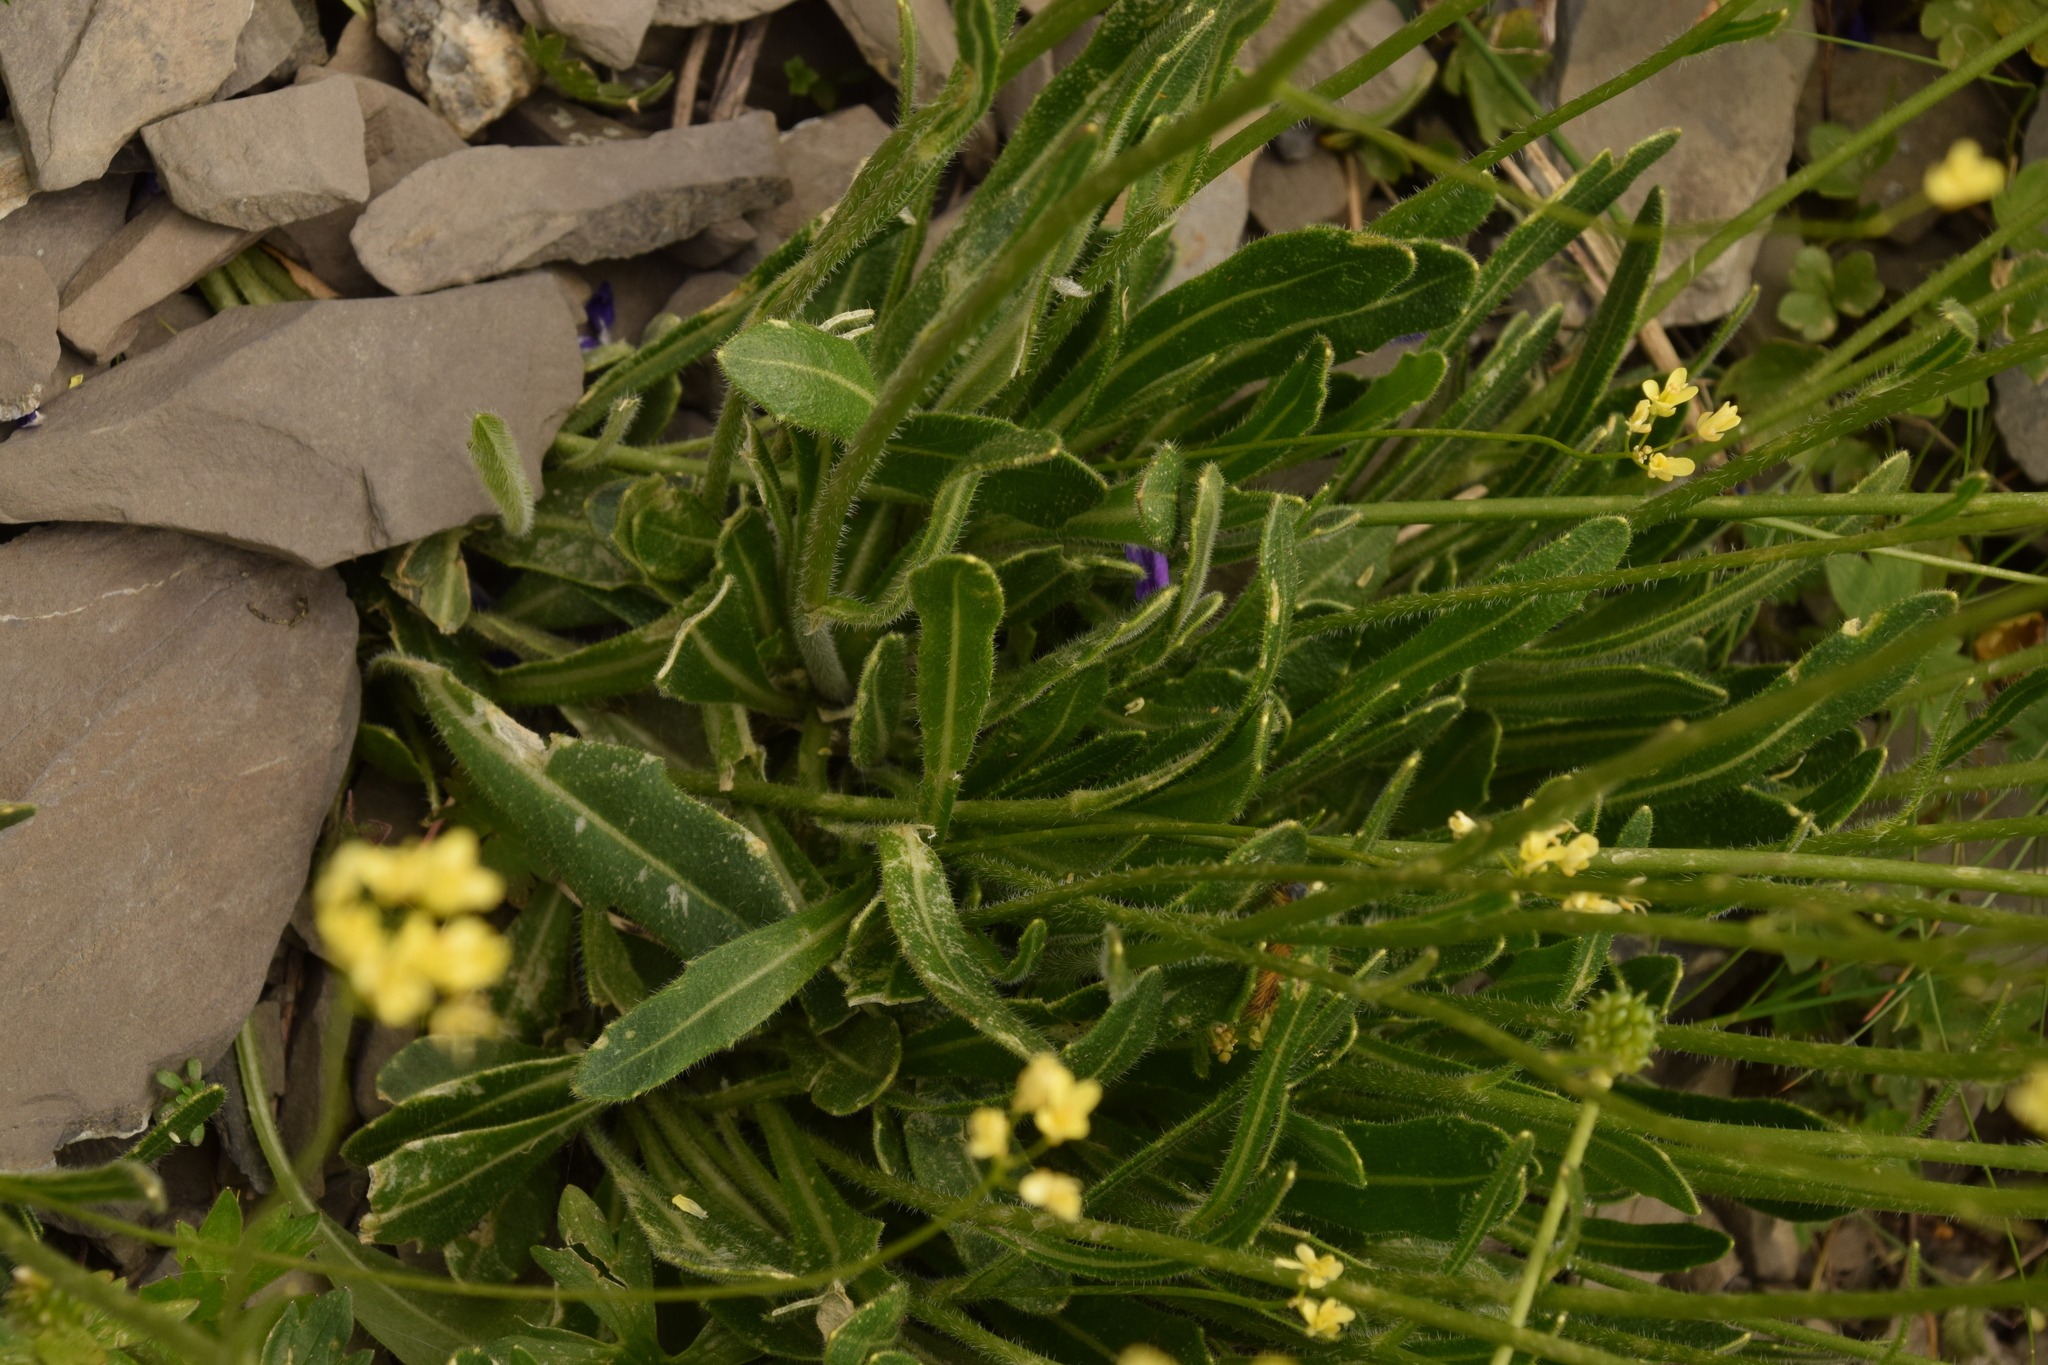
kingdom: Plantae
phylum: Tracheophyta
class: Magnoliopsida
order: Brassicales
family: Brassicaceae
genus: Biscutella
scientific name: Biscutella laevigata
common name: Buckler mustard
